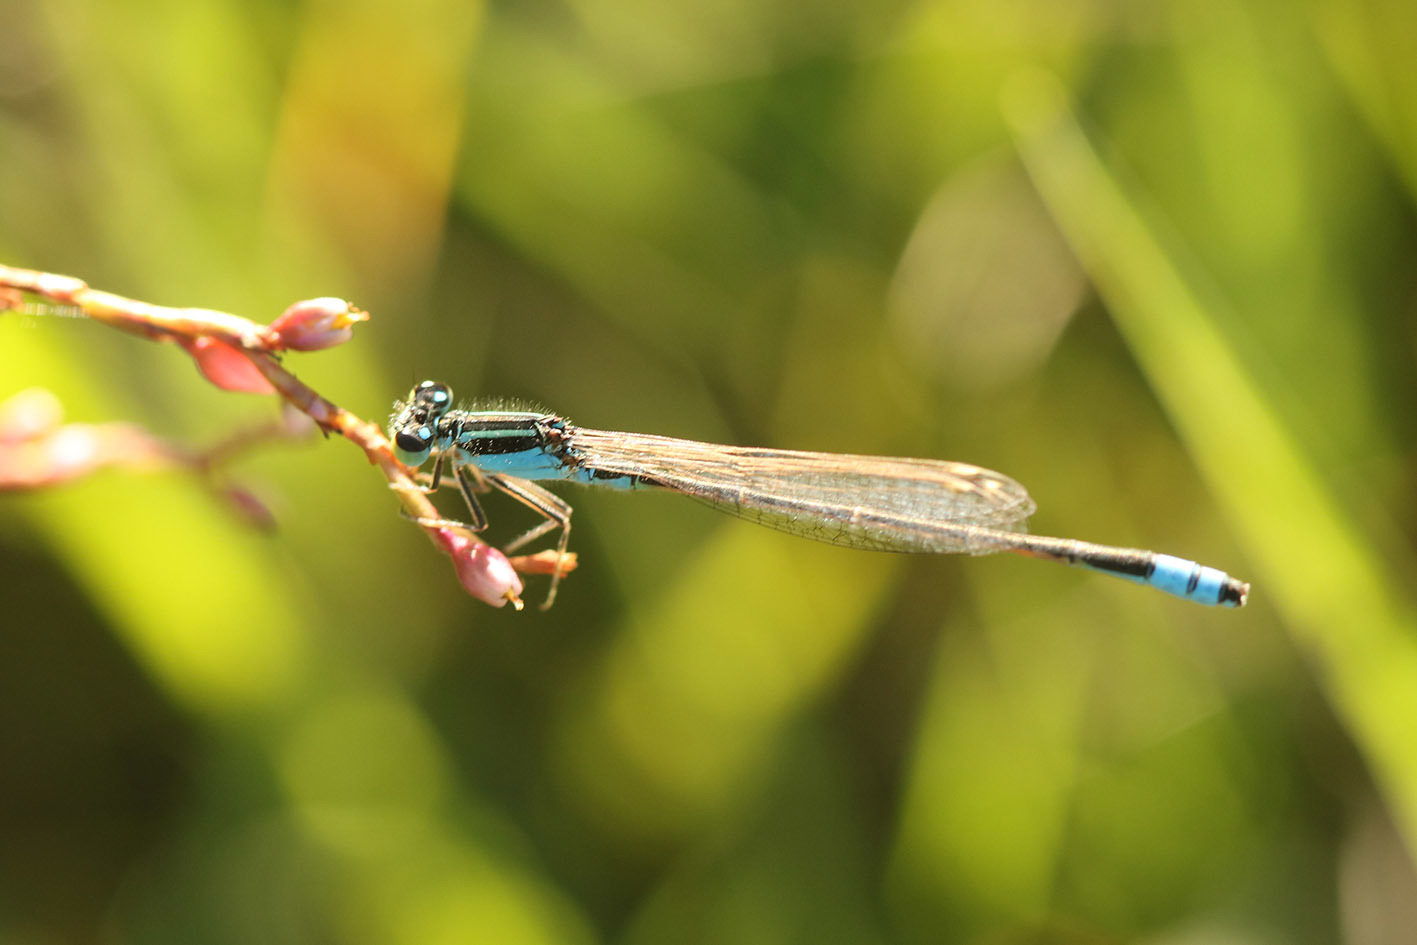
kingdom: Animalia
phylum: Arthropoda
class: Insecta
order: Odonata
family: Coenagrionidae
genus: Ischnura
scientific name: Ischnura fluviatilis
